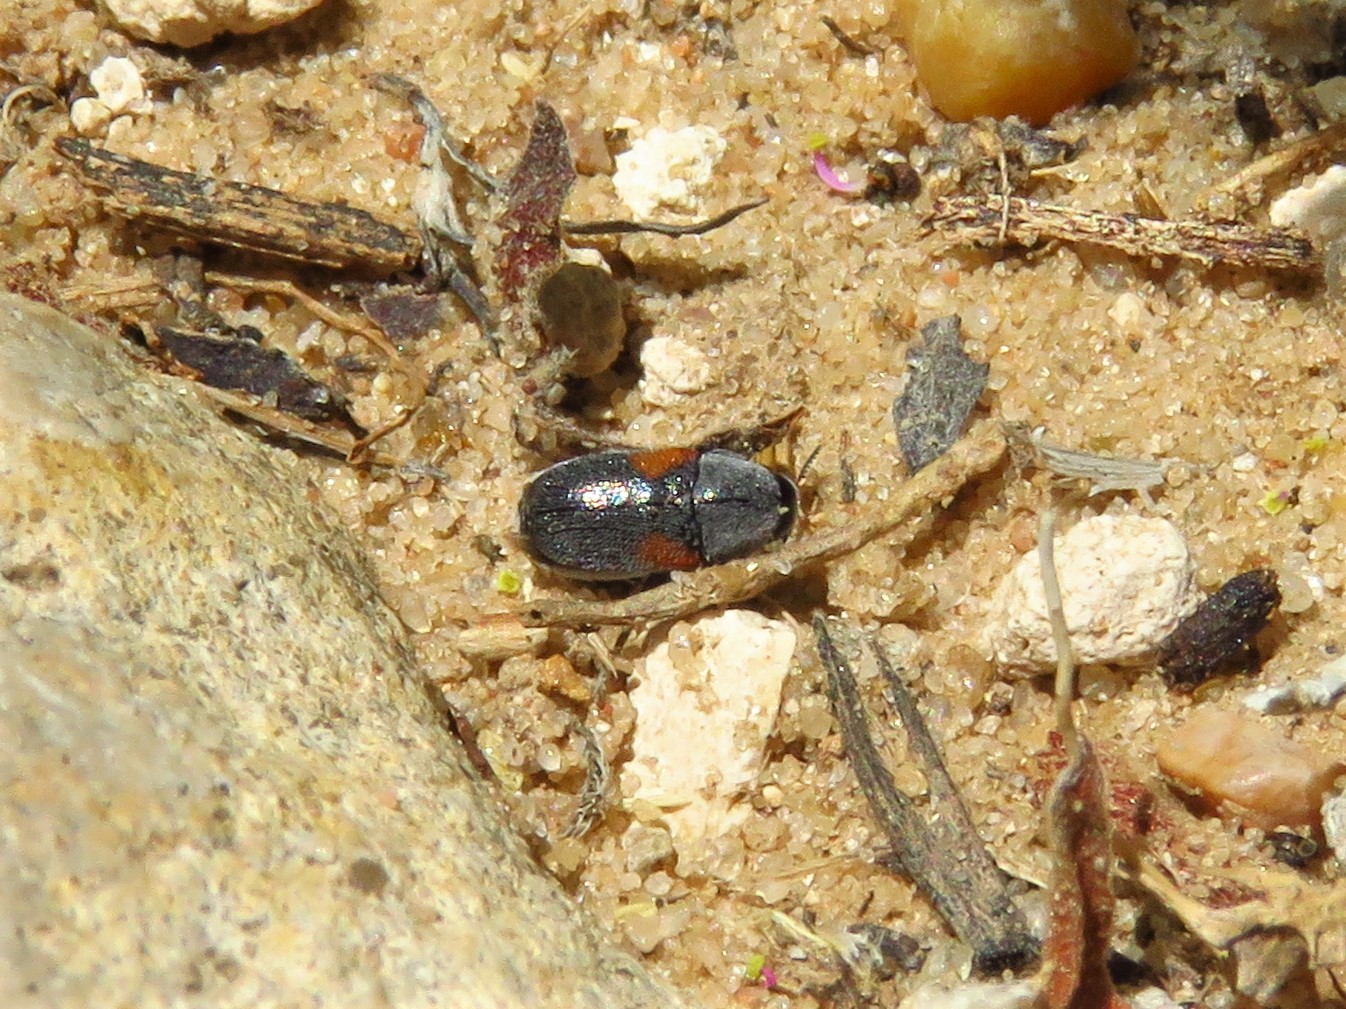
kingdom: Animalia
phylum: Arthropoda
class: Insecta
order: Coleoptera
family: Chrysomelidae
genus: Coleothorpa
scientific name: Coleothorpa axillaris
